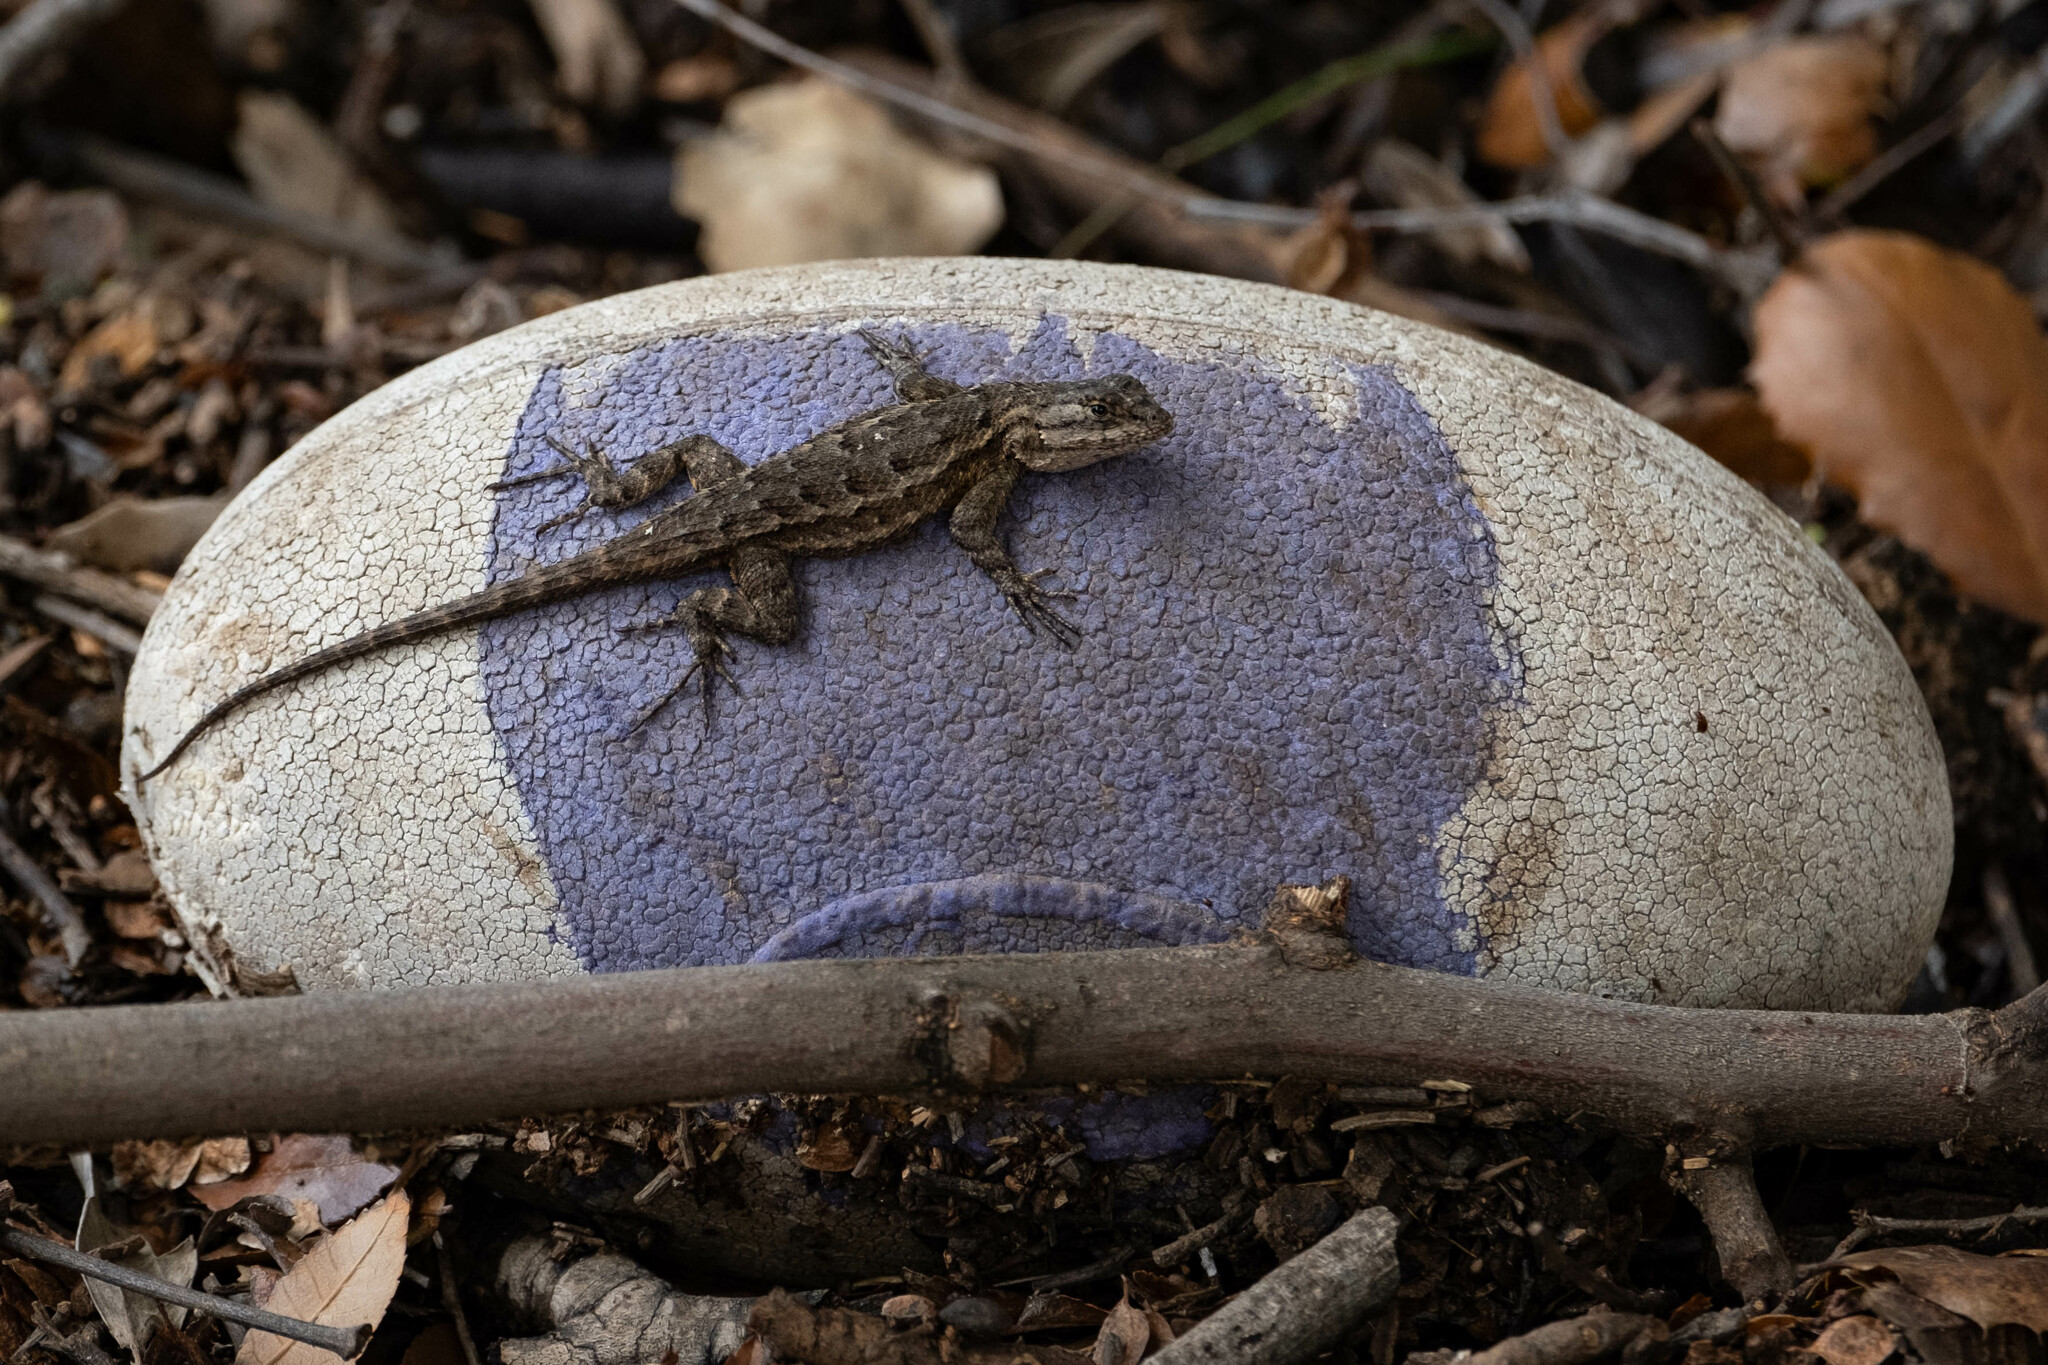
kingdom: Animalia
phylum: Chordata
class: Squamata
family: Phrynosomatidae
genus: Sceloporus
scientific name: Sceloporus occidentalis
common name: Western fence lizard
